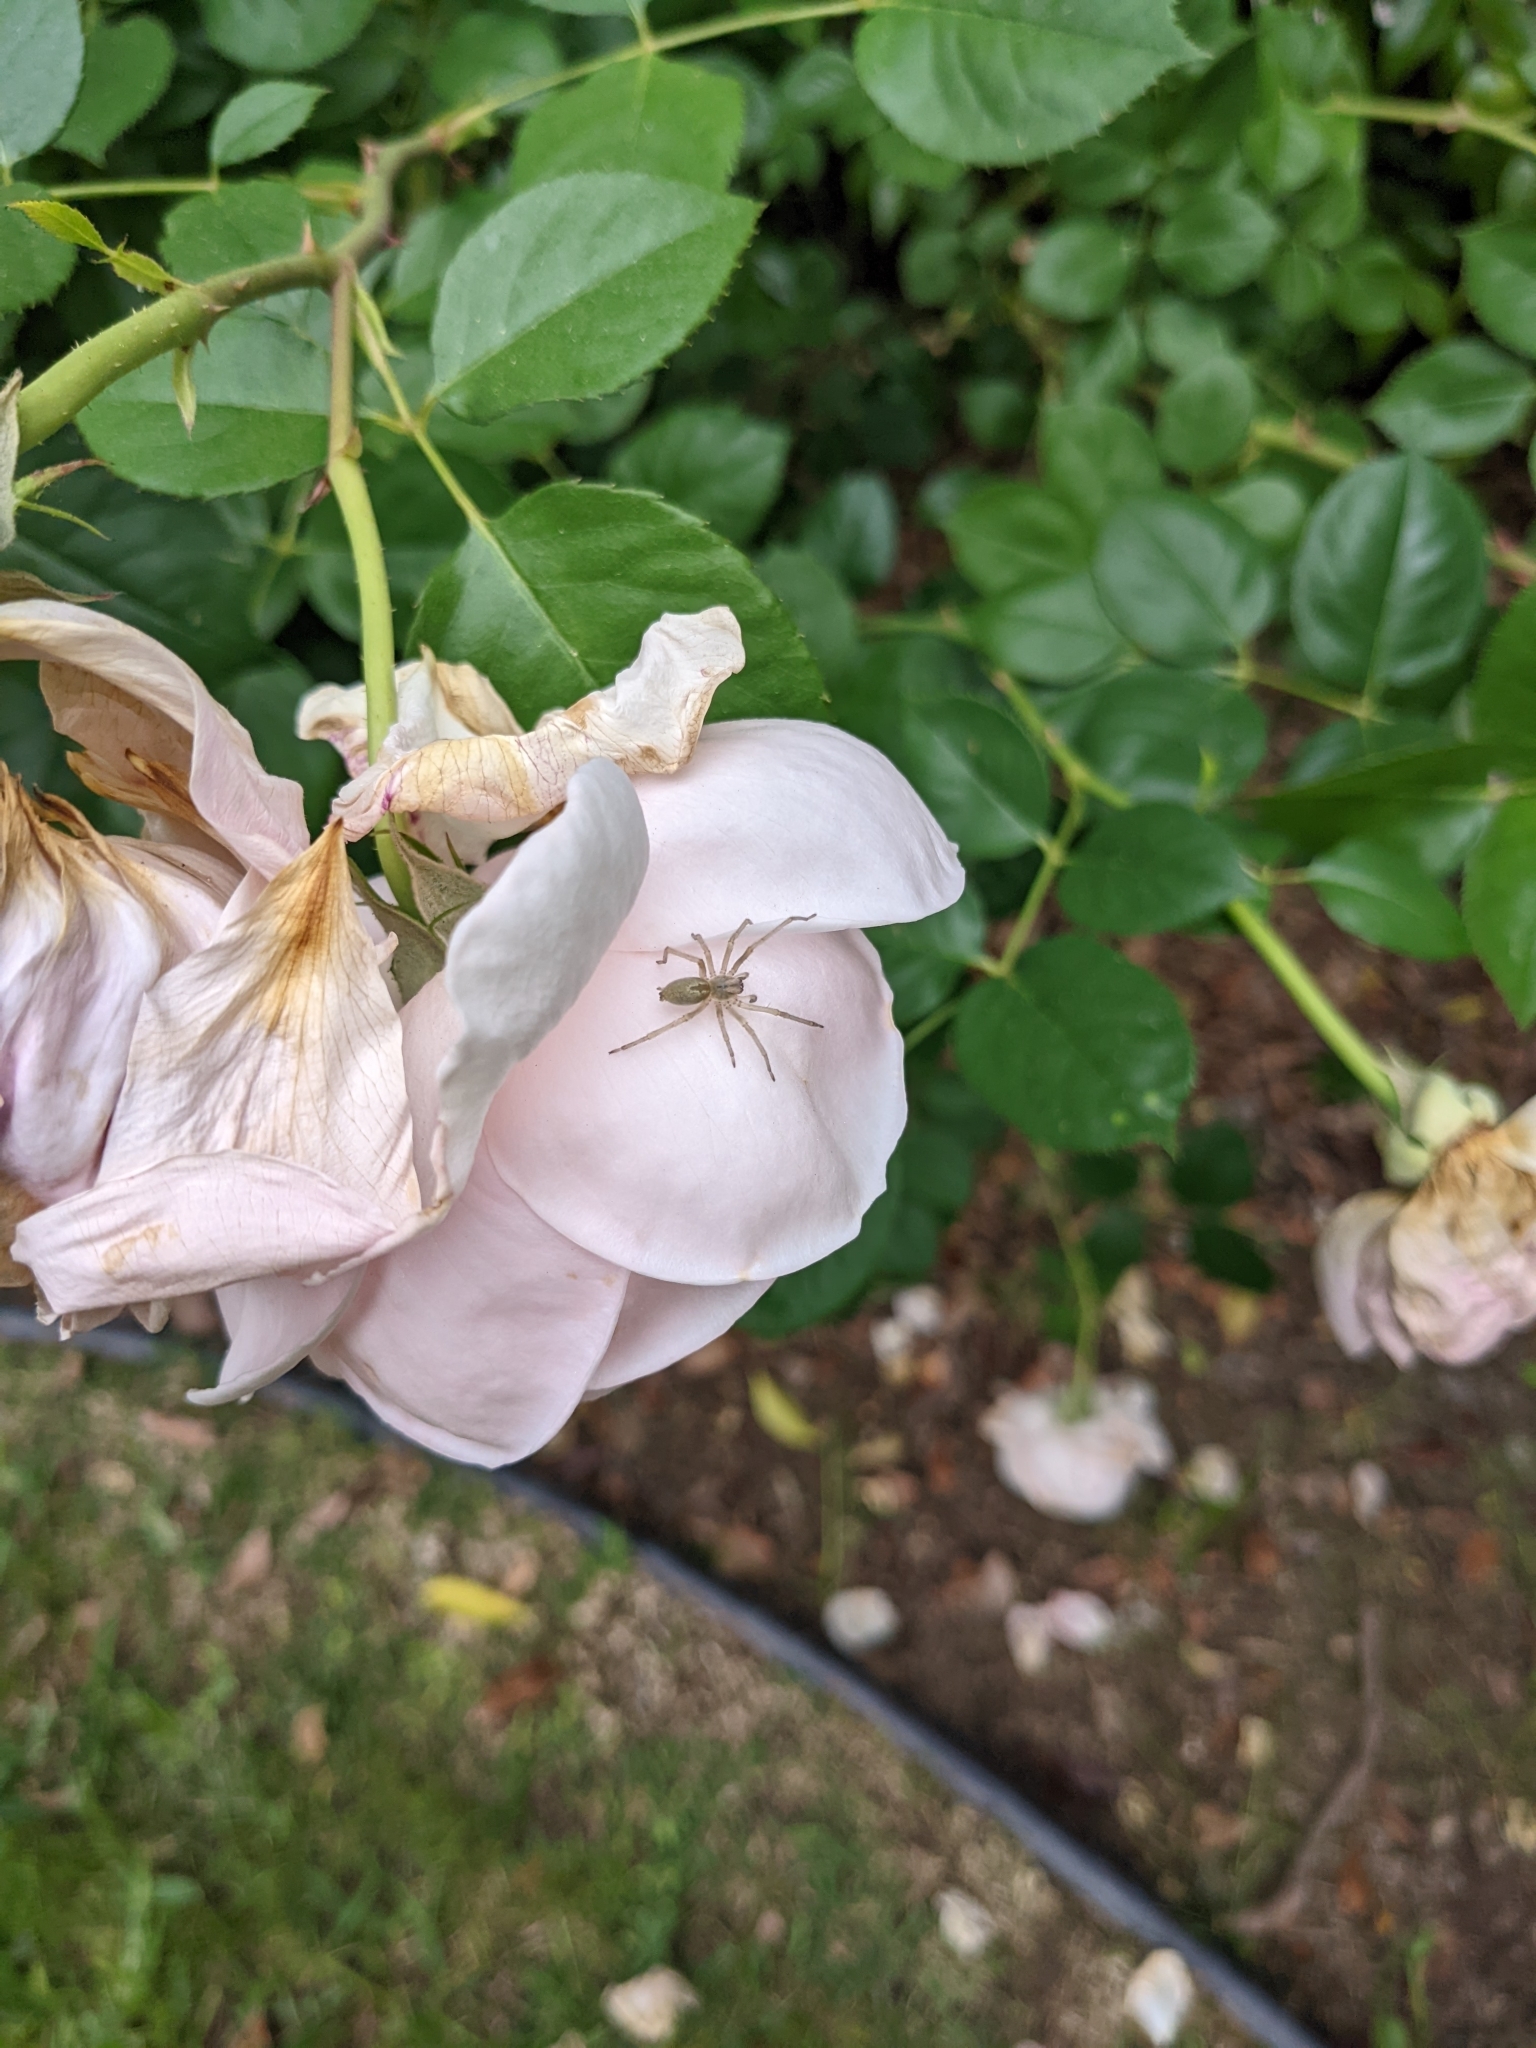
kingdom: Animalia
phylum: Arthropoda
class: Arachnida
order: Araneae
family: Cheiracanthiidae
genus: Cheiracanthium
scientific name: Cheiracanthium
